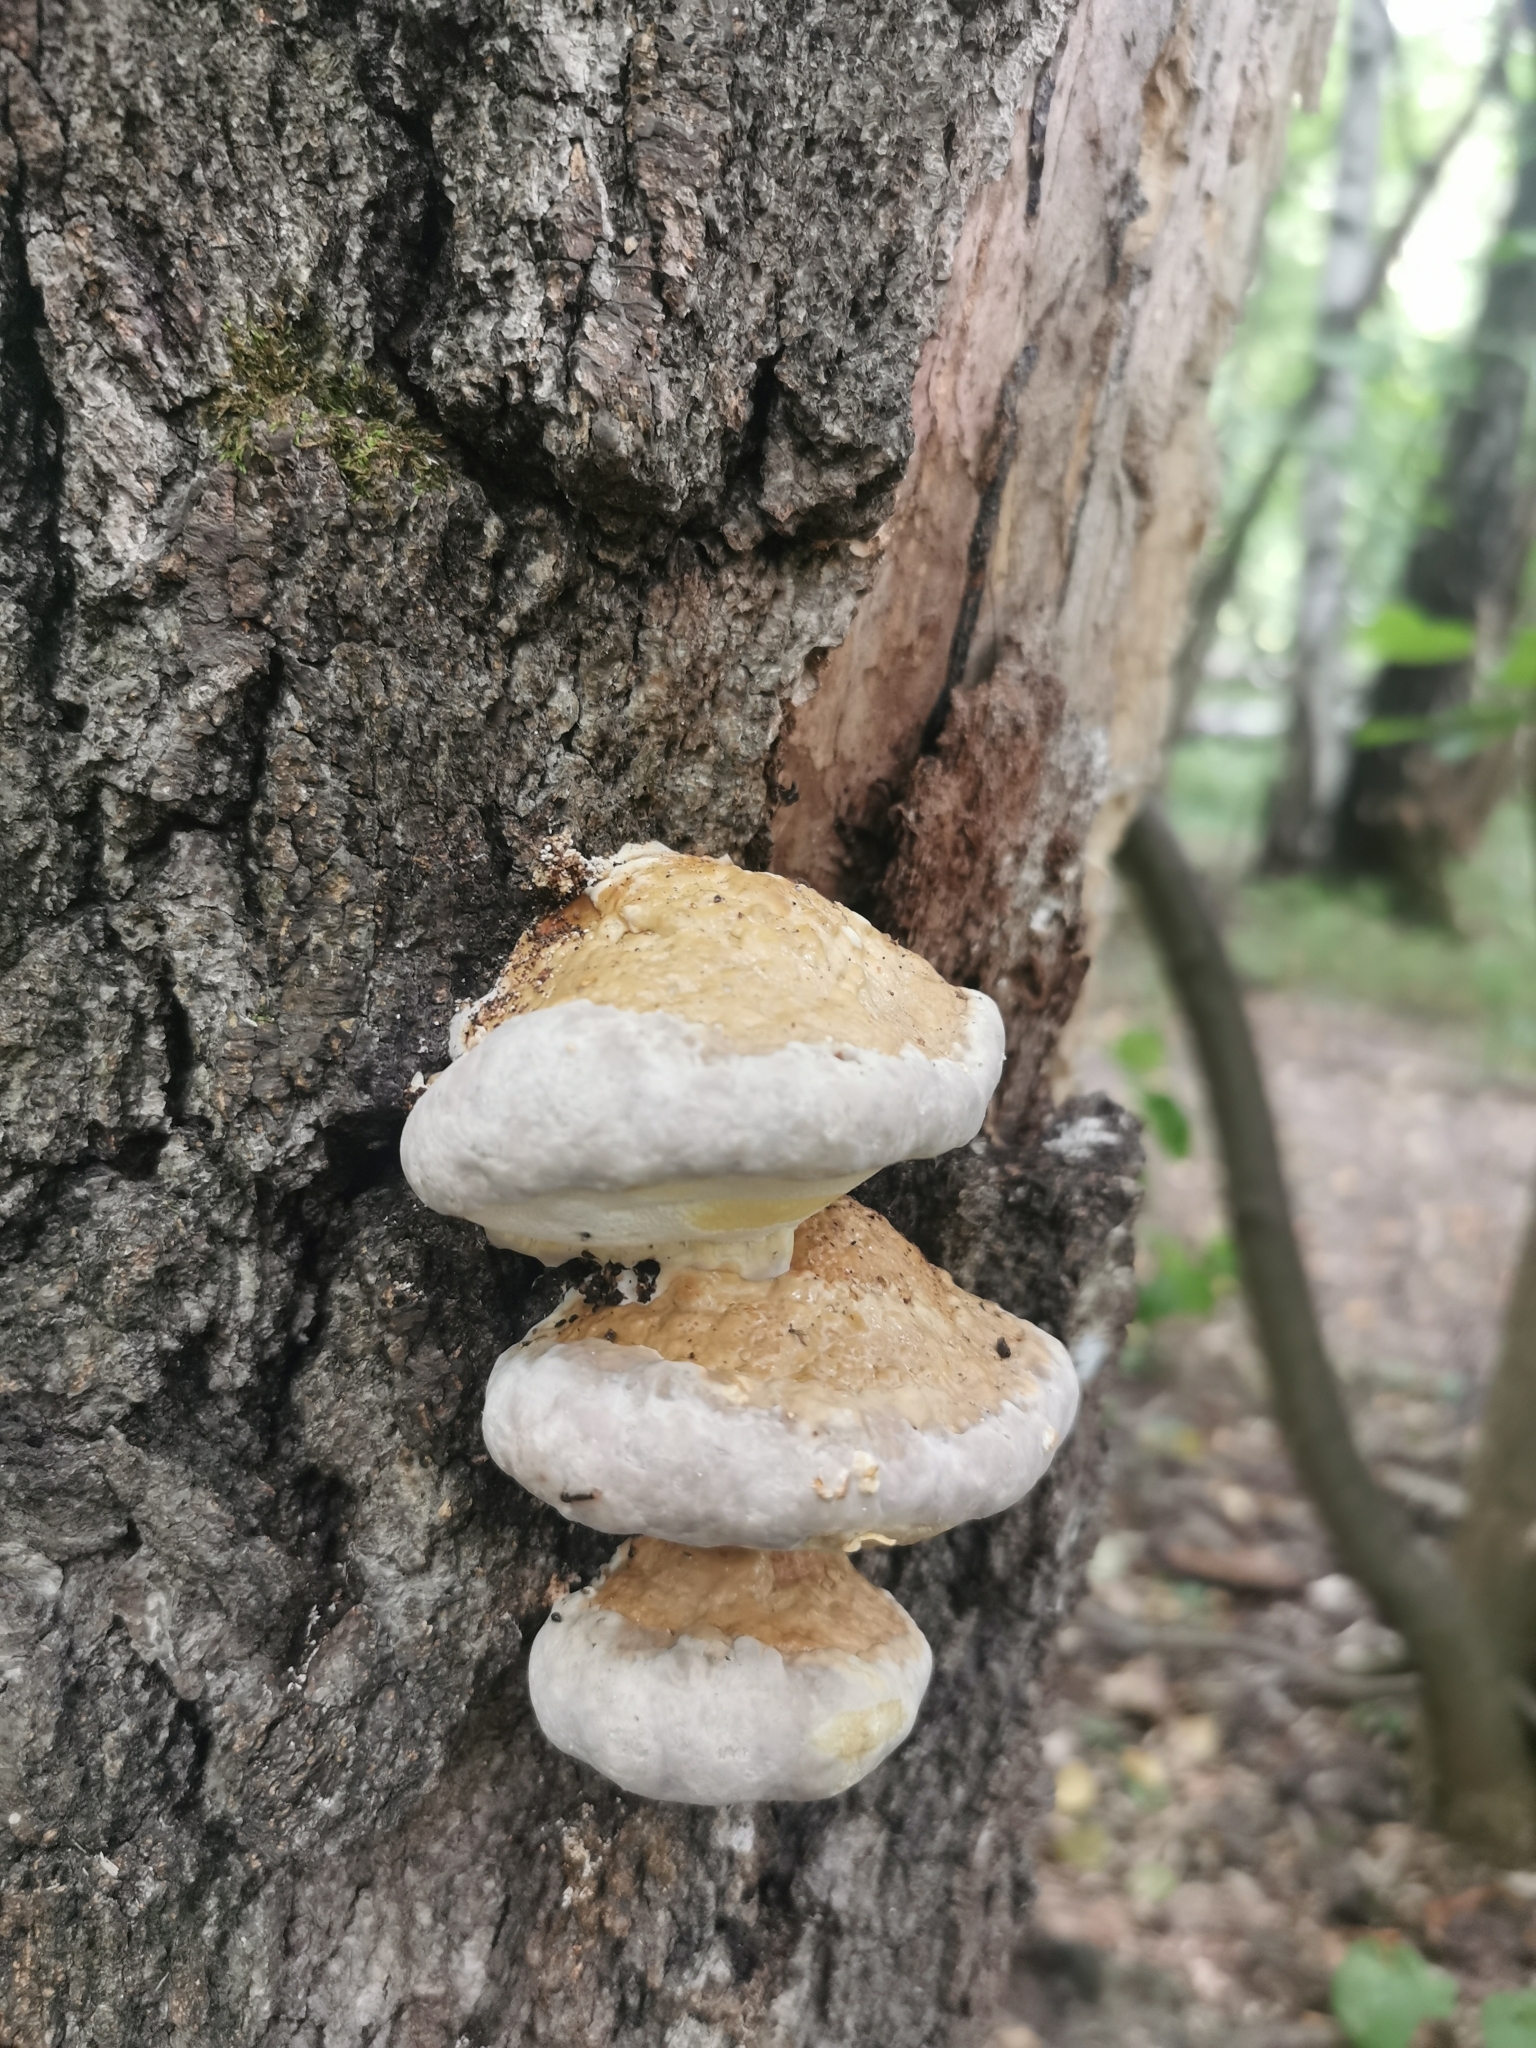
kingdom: Fungi
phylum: Basidiomycota
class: Agaricomycetes
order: Polyporales
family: Fomitopsidaceae
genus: Fomitopsis
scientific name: Fomitopsis pinicola
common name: Red-belted bracket
